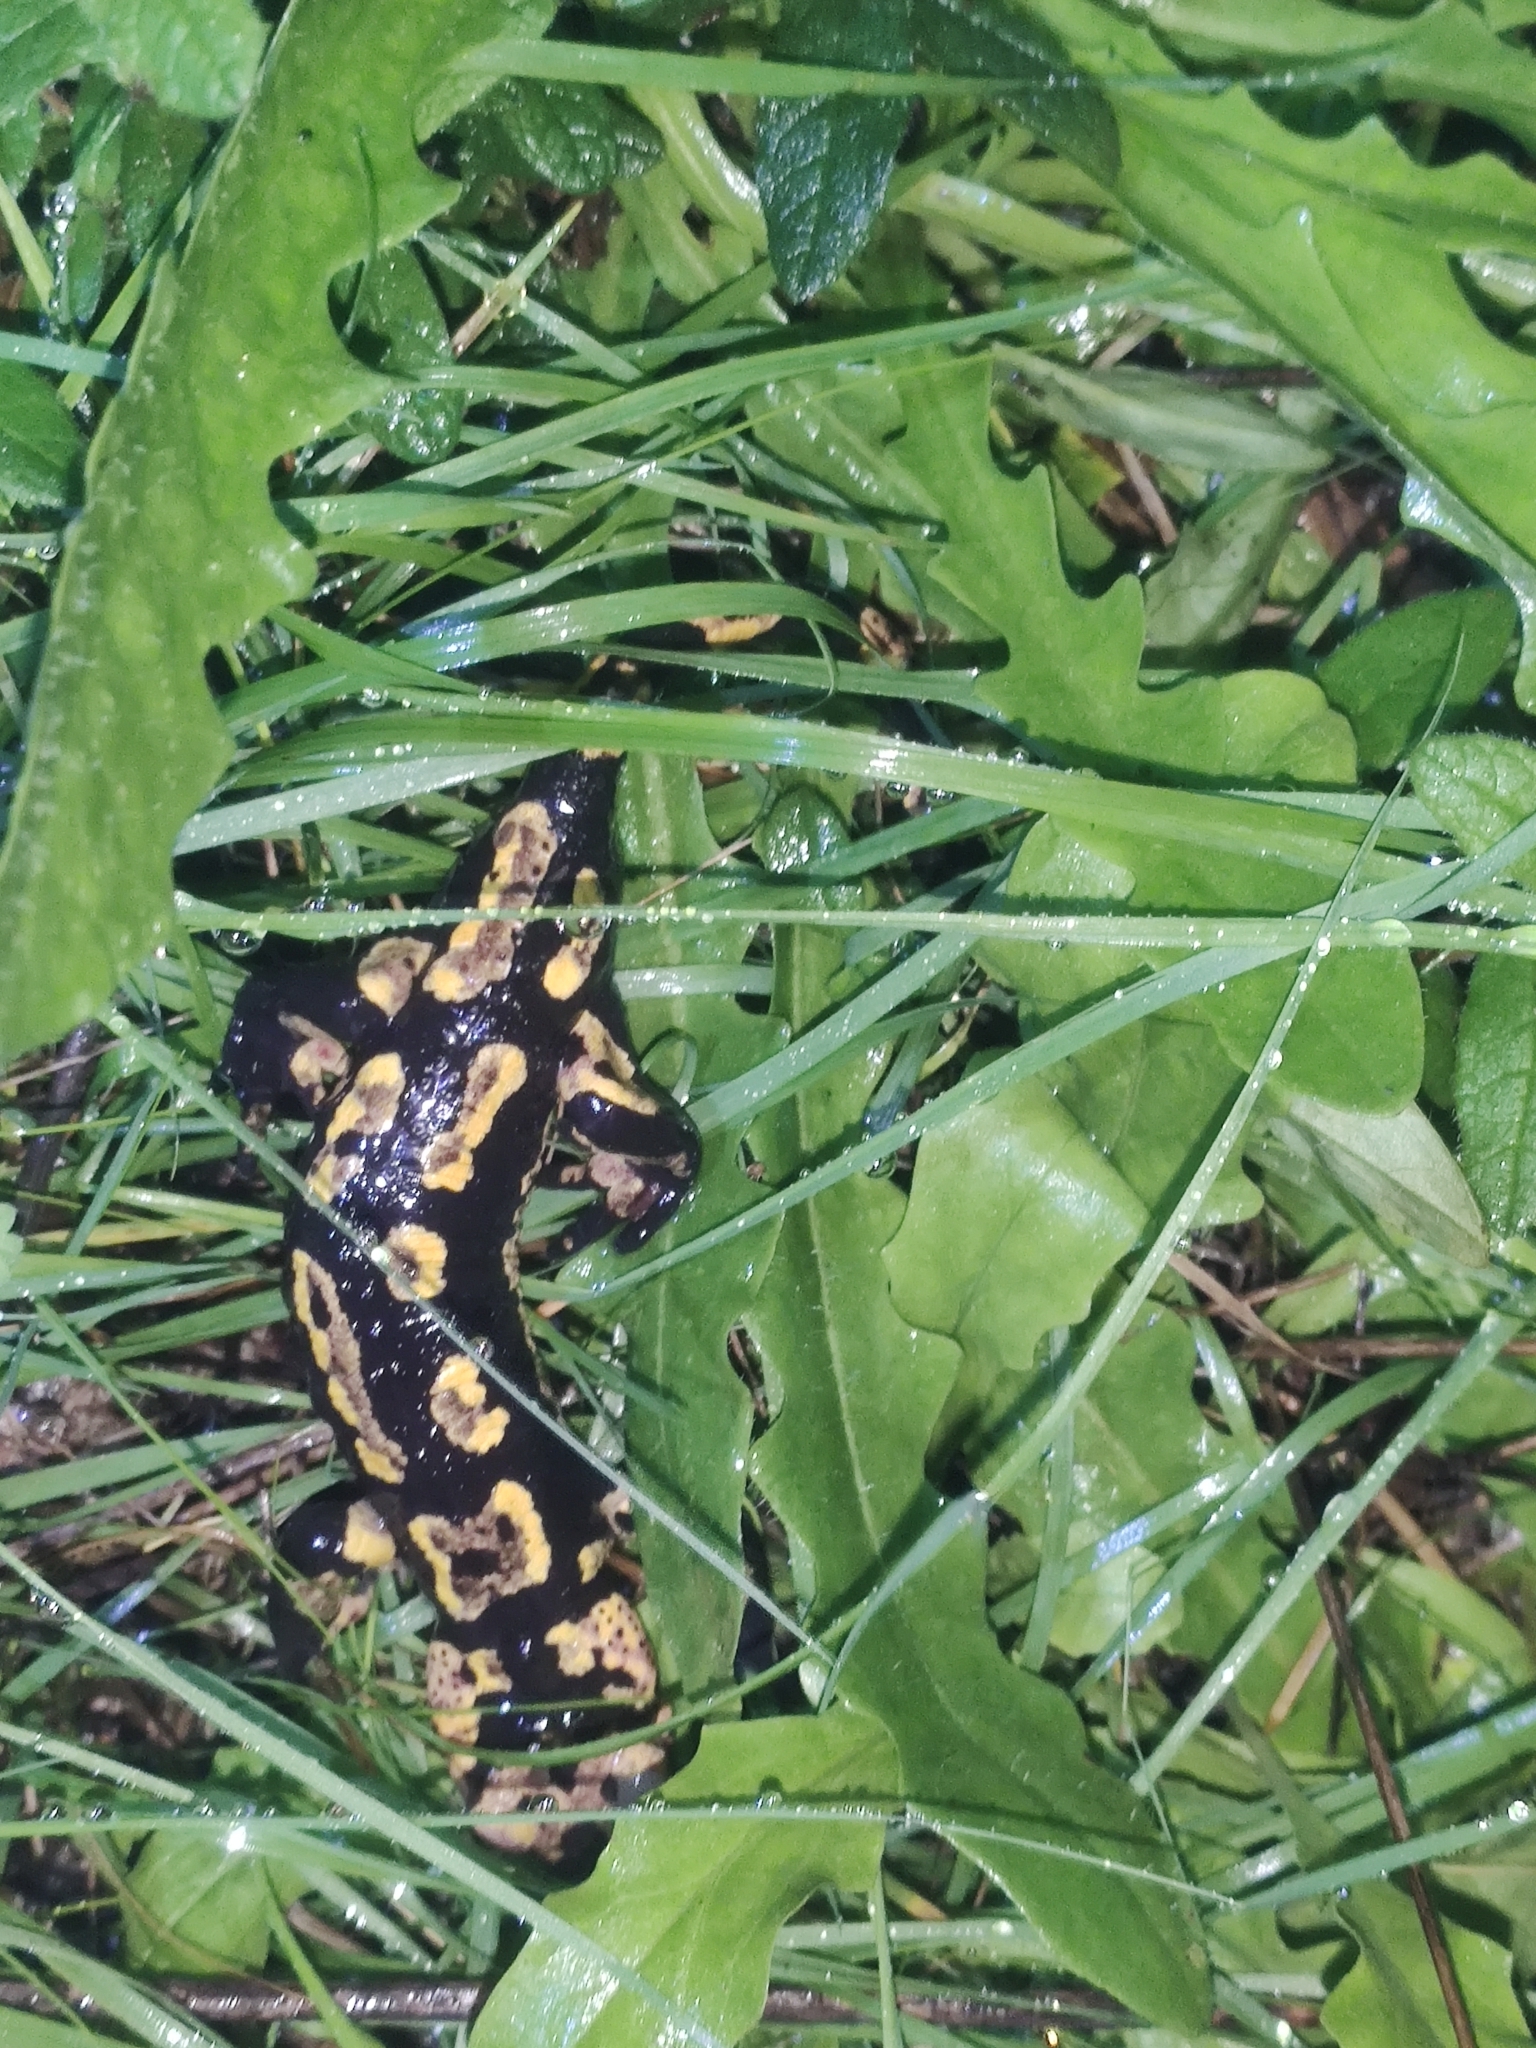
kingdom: Animalia
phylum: Chordata
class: Amphibia
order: Caudata
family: Salamandridae
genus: Salamandra
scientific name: Salamandra salamandra
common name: Fire salamander
